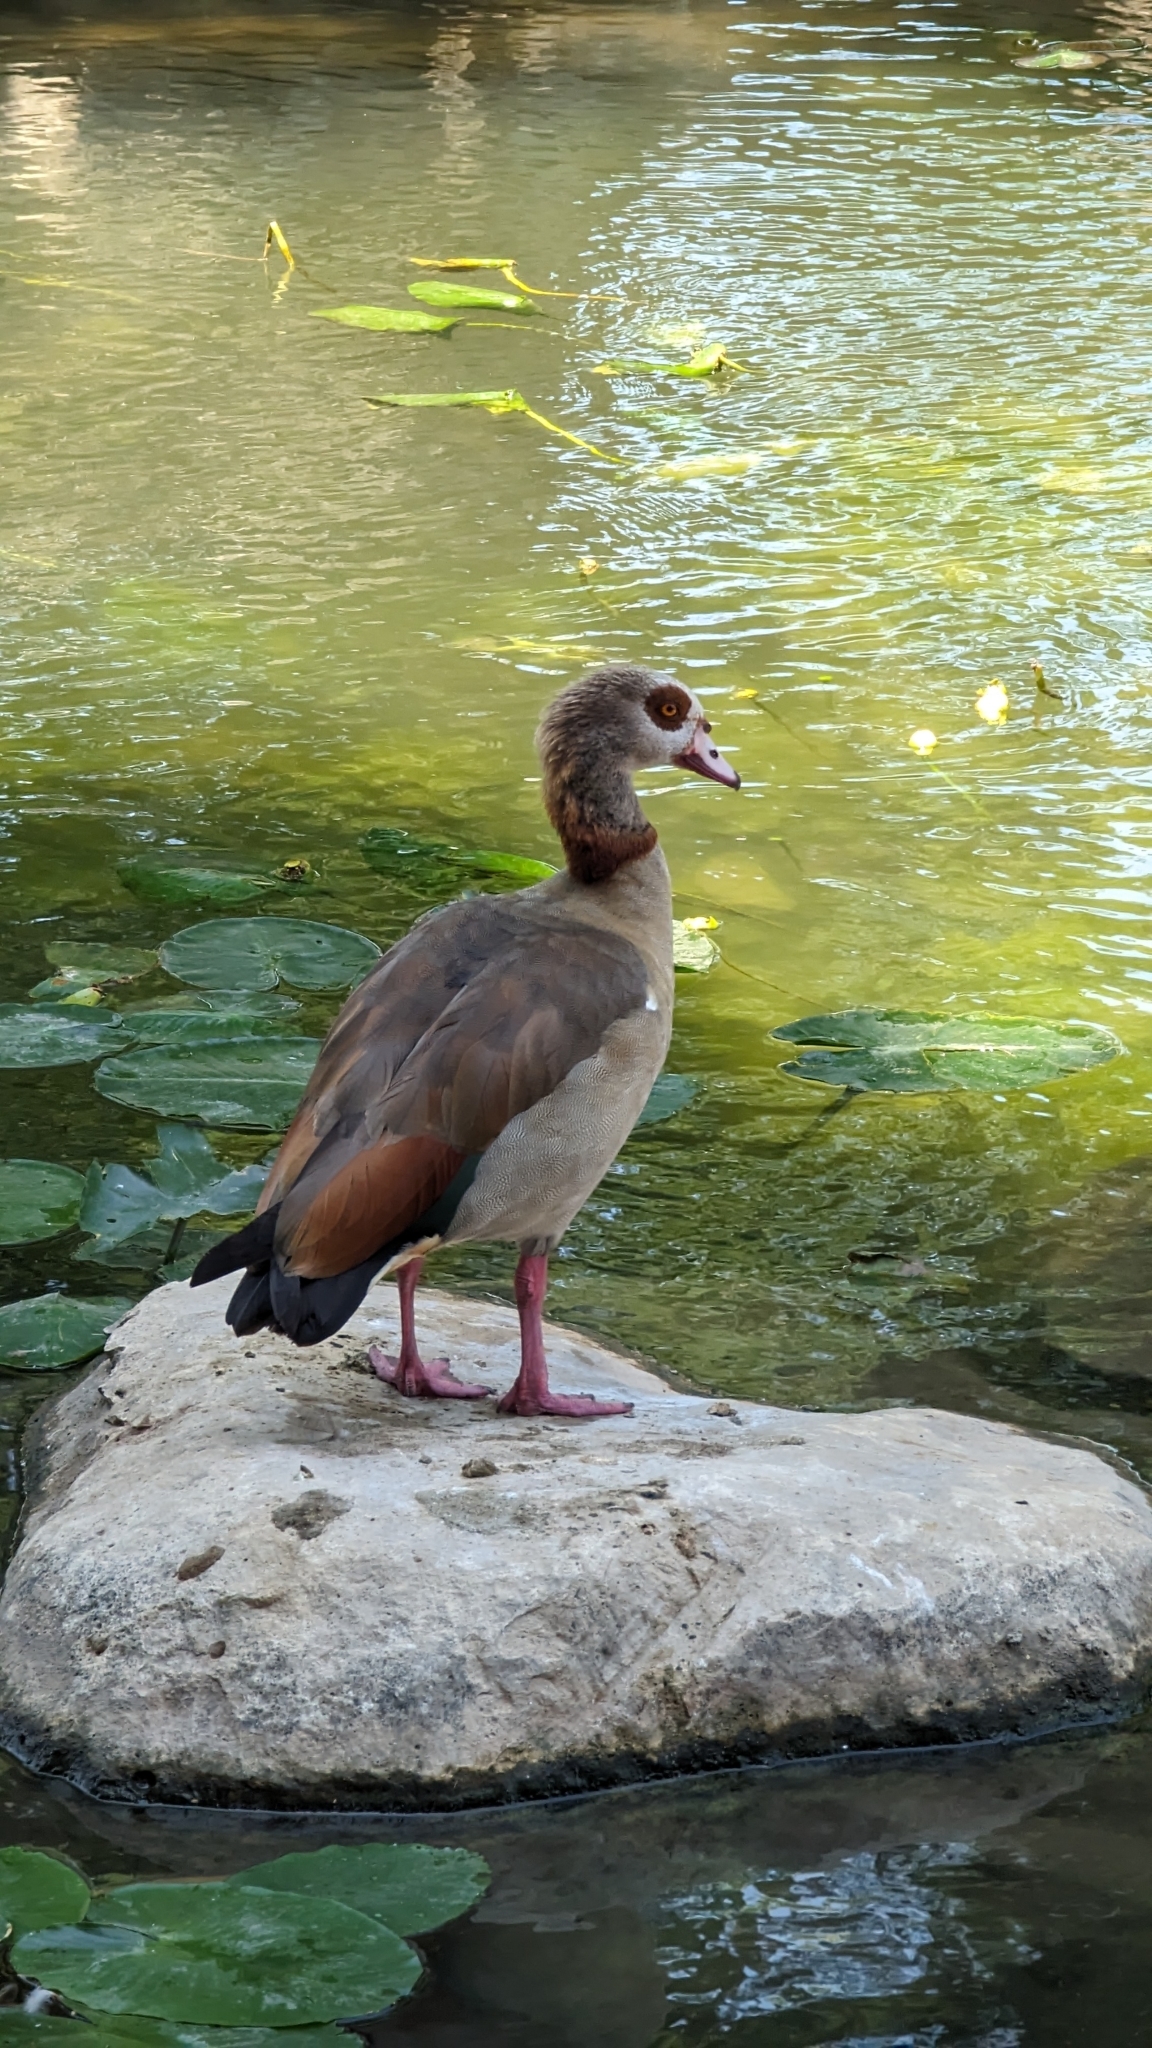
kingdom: Animalia
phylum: Chordata
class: Aves
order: Anseriformes
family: Anatidae
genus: Alopochen
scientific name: Alopochen aegyptiaca
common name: Egyptian goose
